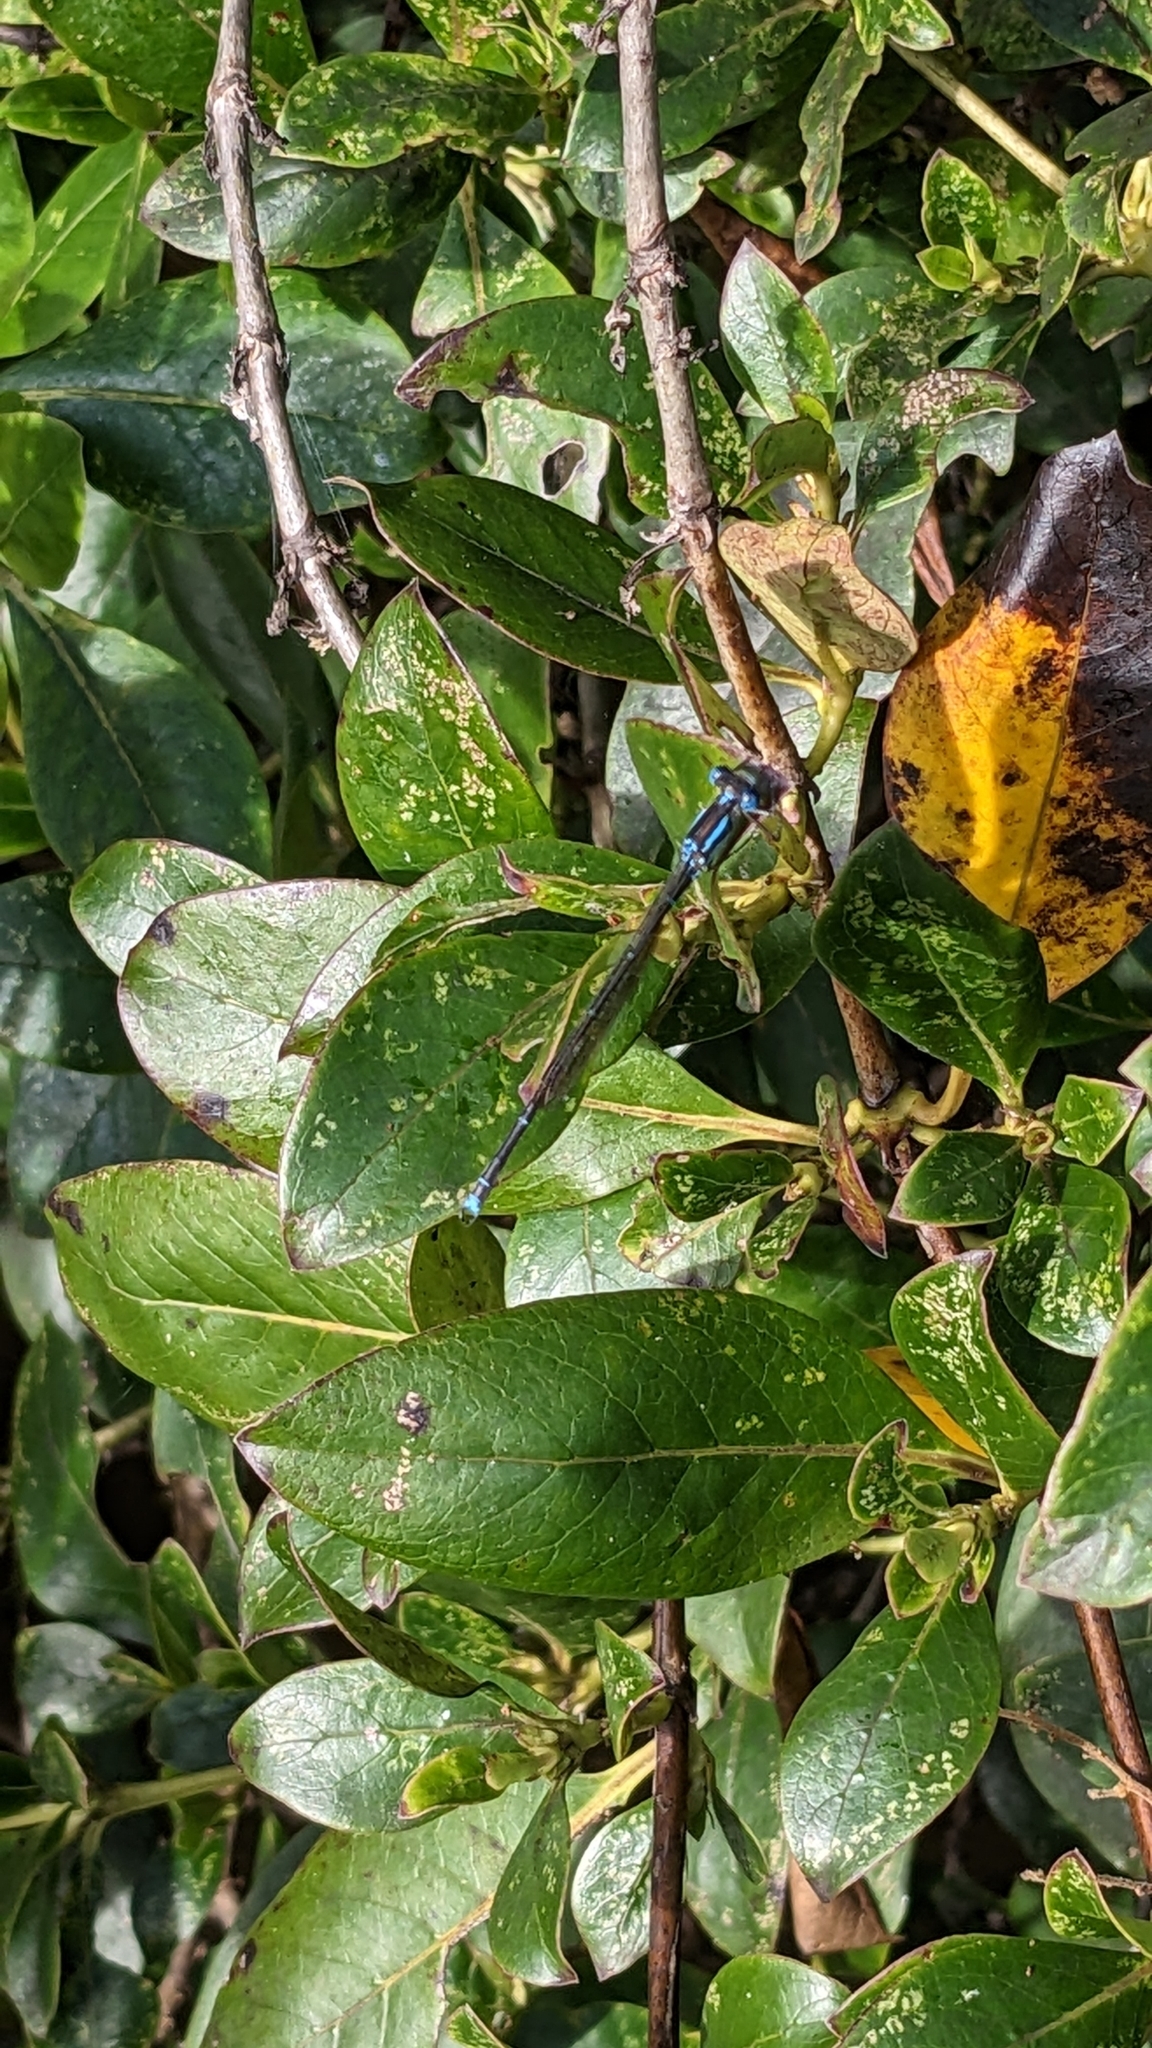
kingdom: Animalia
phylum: Arthropoda
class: Insecta
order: Odonata
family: Lestidae
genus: Austrolestes
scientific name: Austrolestes colensonis
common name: Blue damselfly
